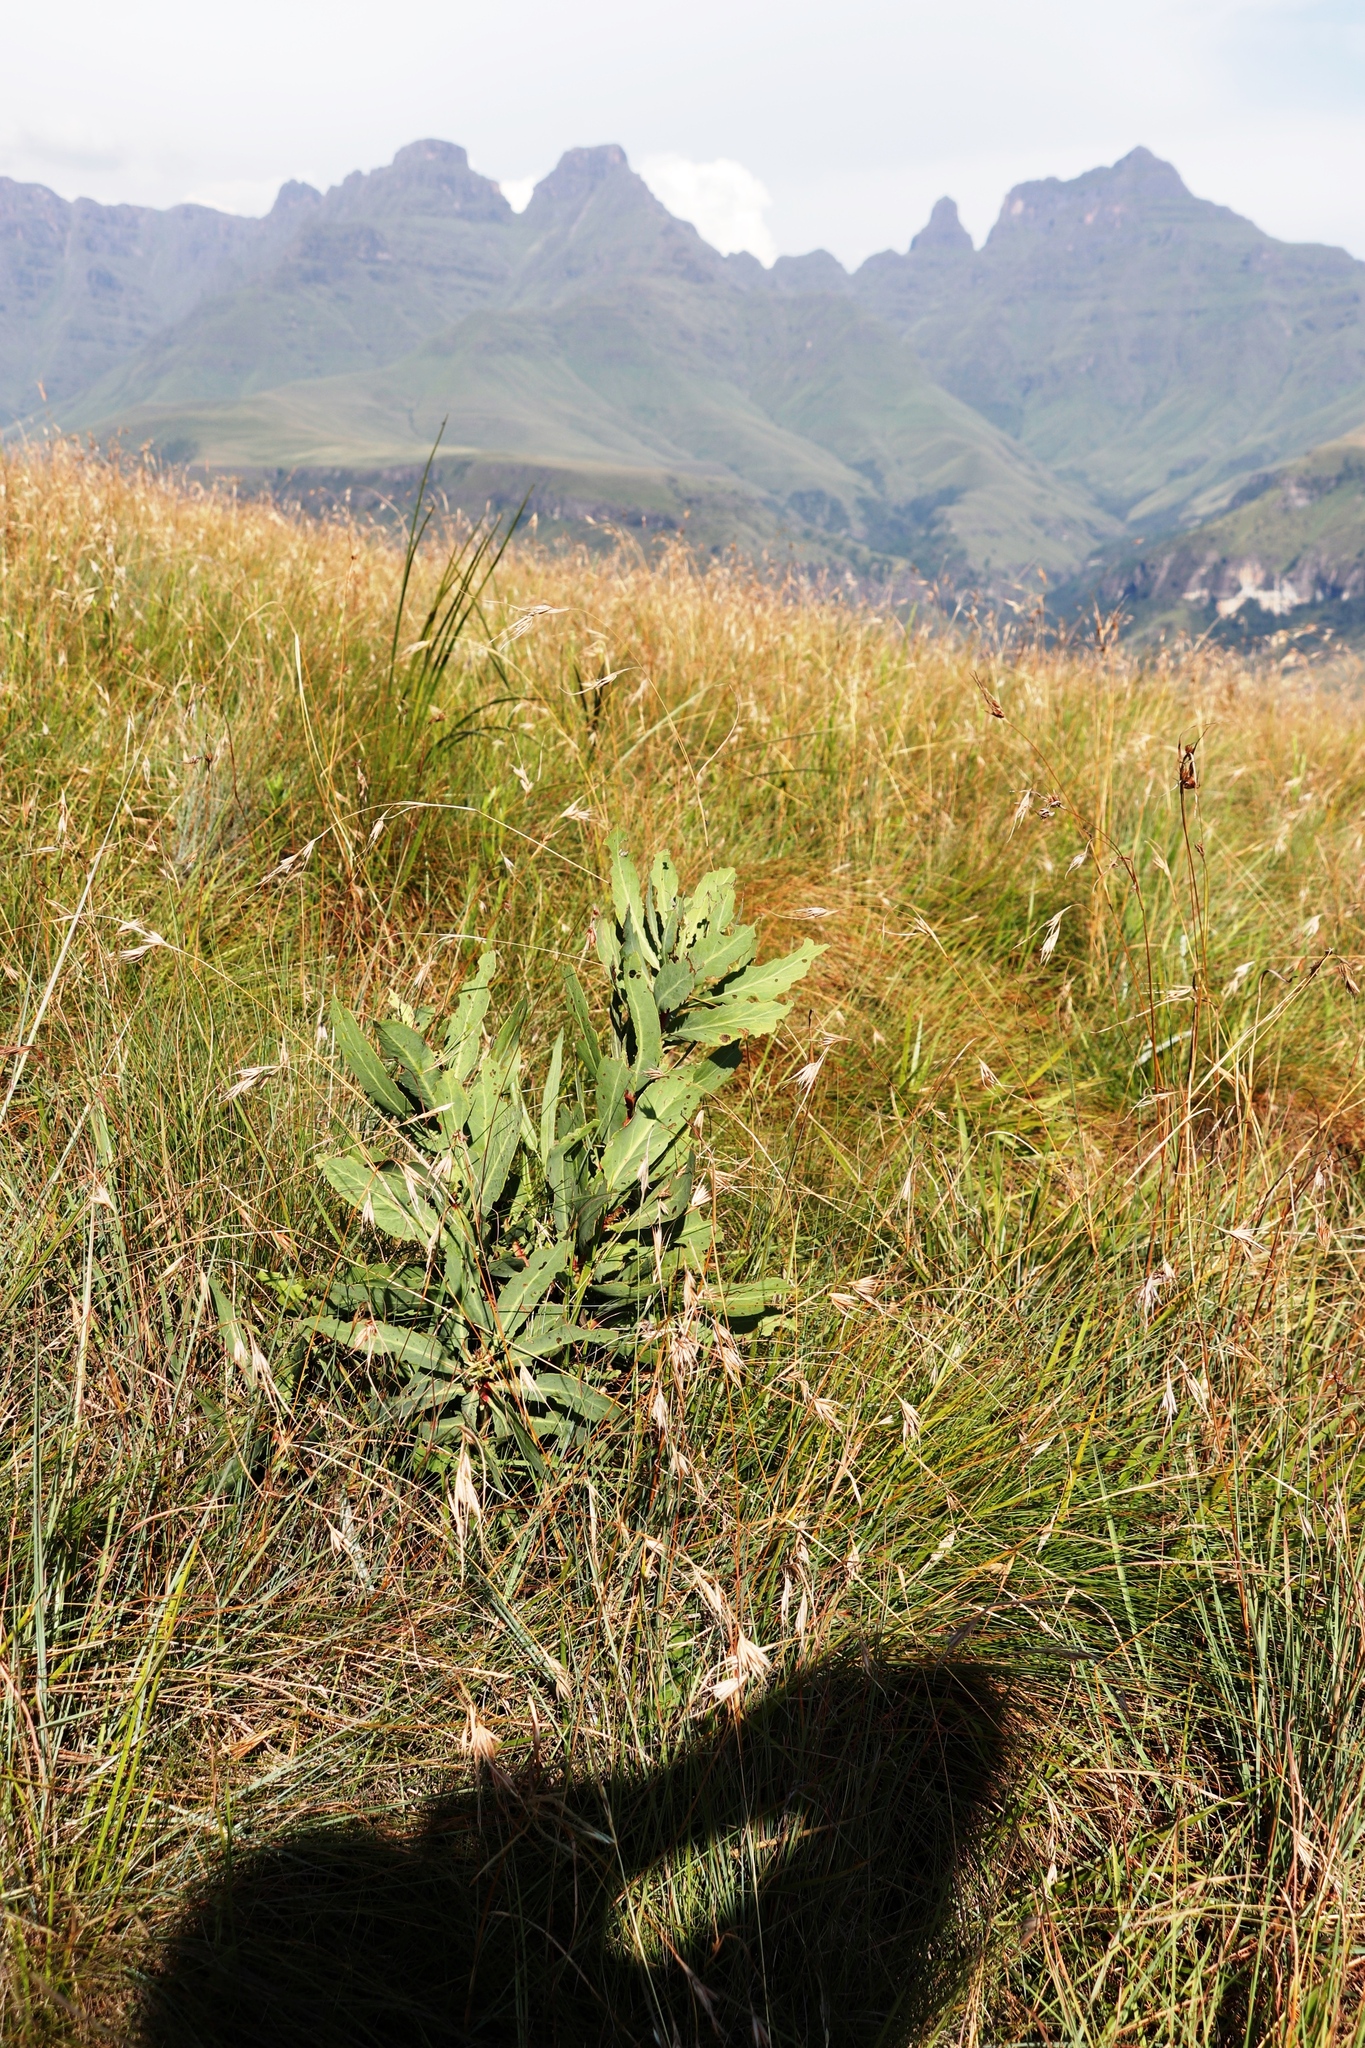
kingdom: Plantae
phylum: Tracheophyta
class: Magnoliopsida
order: Proteales
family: Proteaceae
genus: Protea
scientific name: Protea caffra
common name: Common sugarbush
